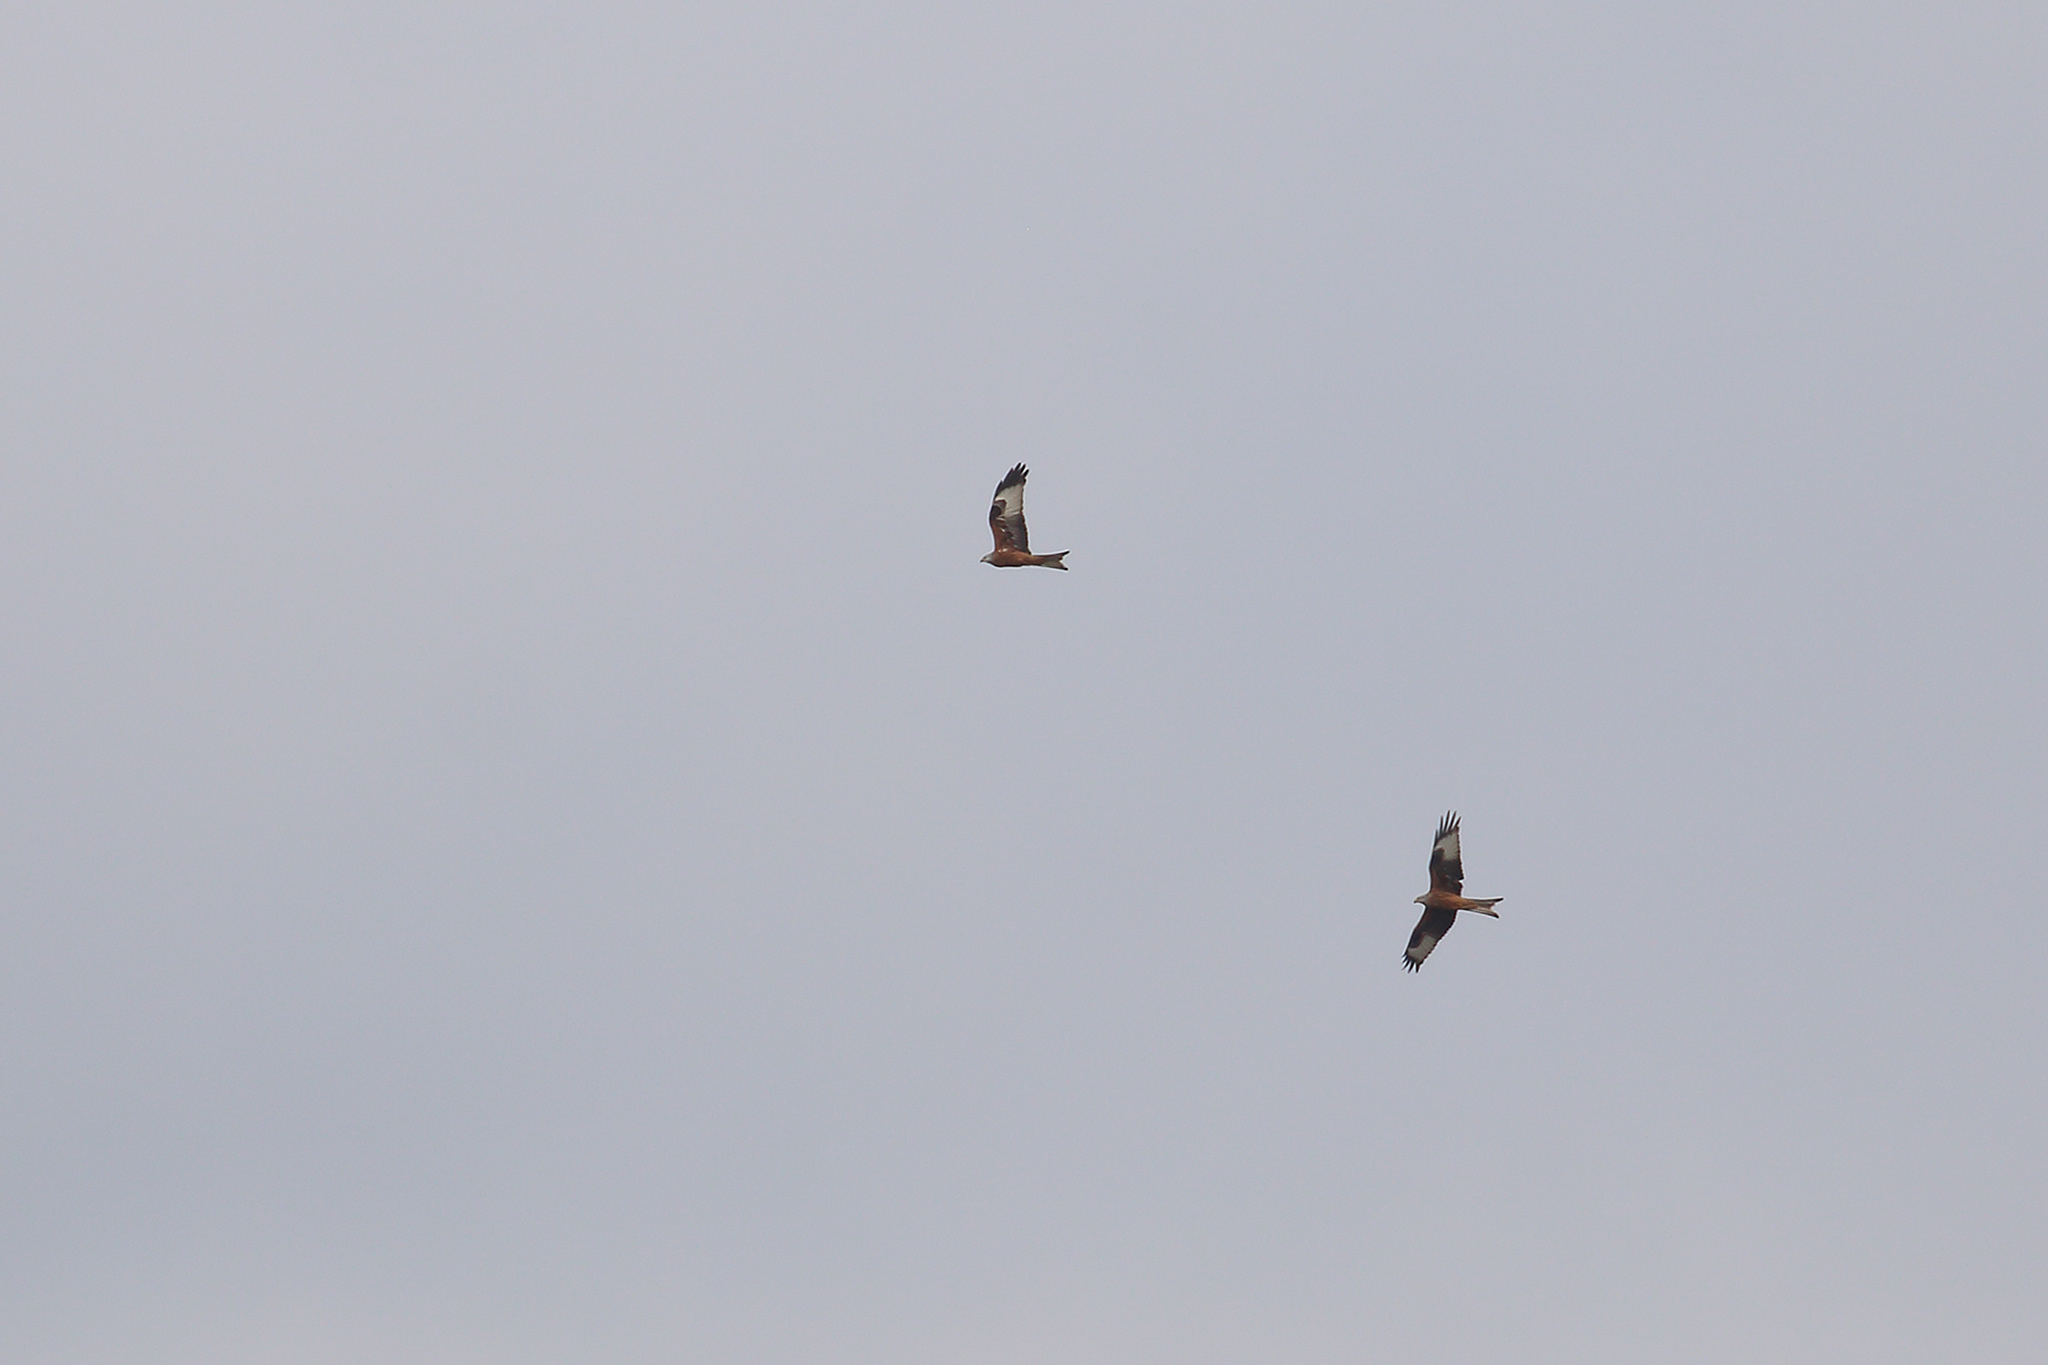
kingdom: Animalia
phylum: Chordata
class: Aves
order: Accipitriformes
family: Accipitridae
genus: Milvus
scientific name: Milvus milvus
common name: Red kite
